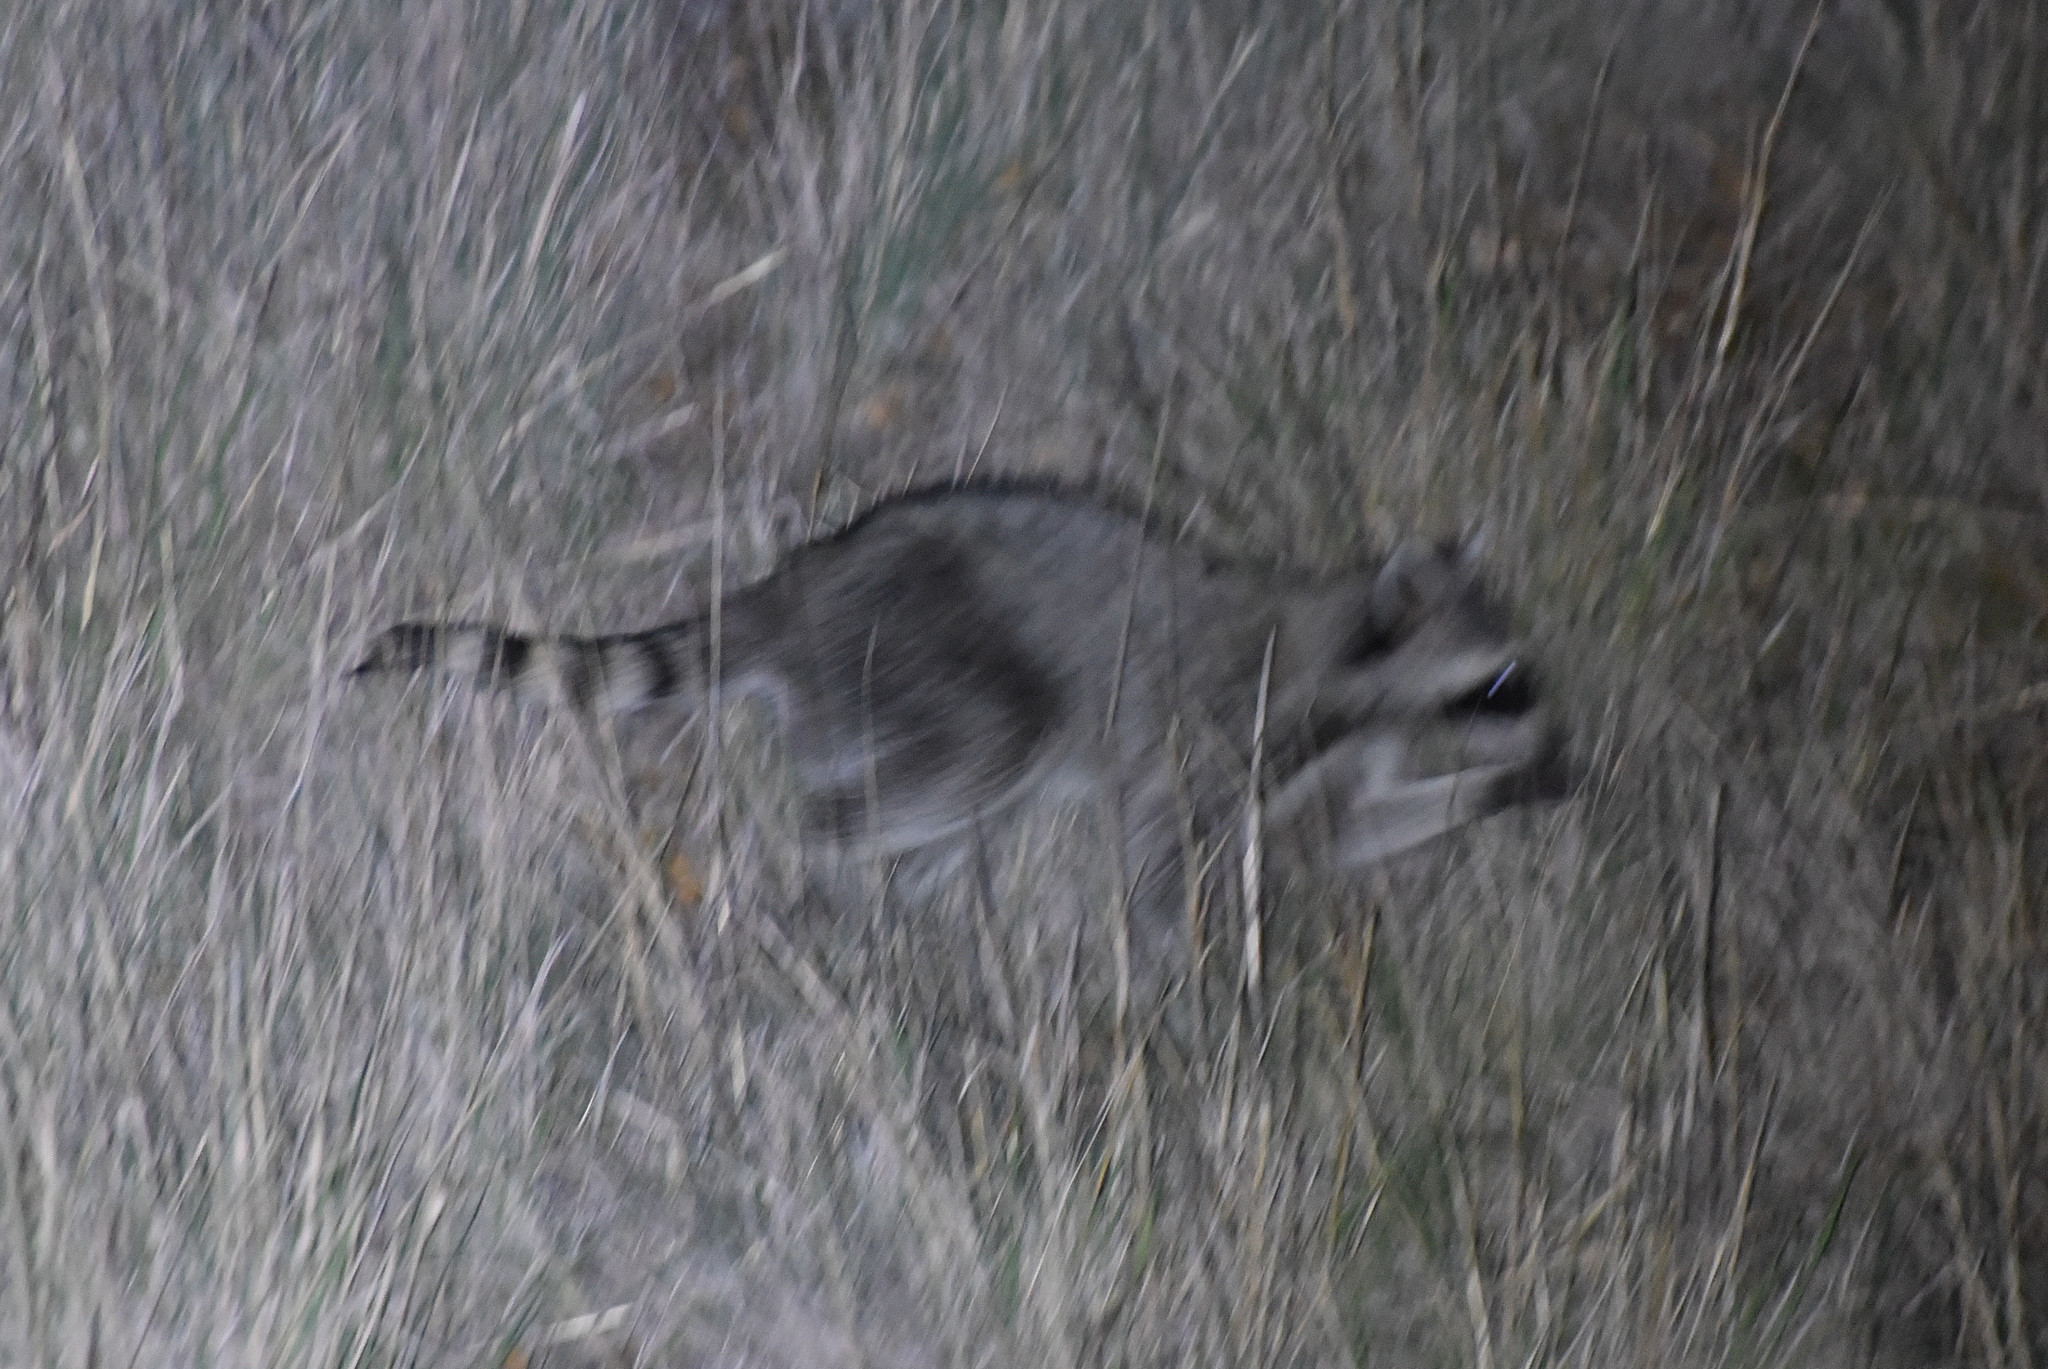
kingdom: Animalia
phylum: Chordata
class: Mammalia
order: Carnivora
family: Procyonidae
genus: Procyon
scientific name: Procyon lotor
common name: Raccoon
